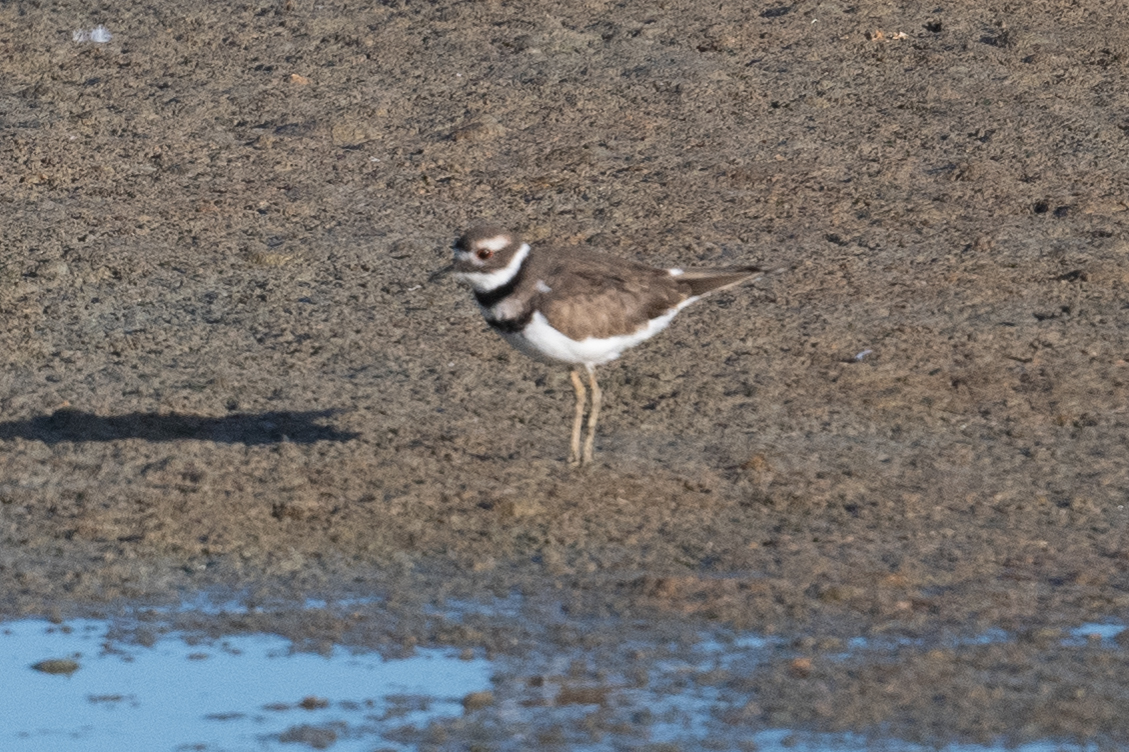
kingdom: Animalia
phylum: Chordata
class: Aves
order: Charadriiformes
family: Charadriidae
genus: Charadrius
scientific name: Charadrius vociferus
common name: Killdeer
